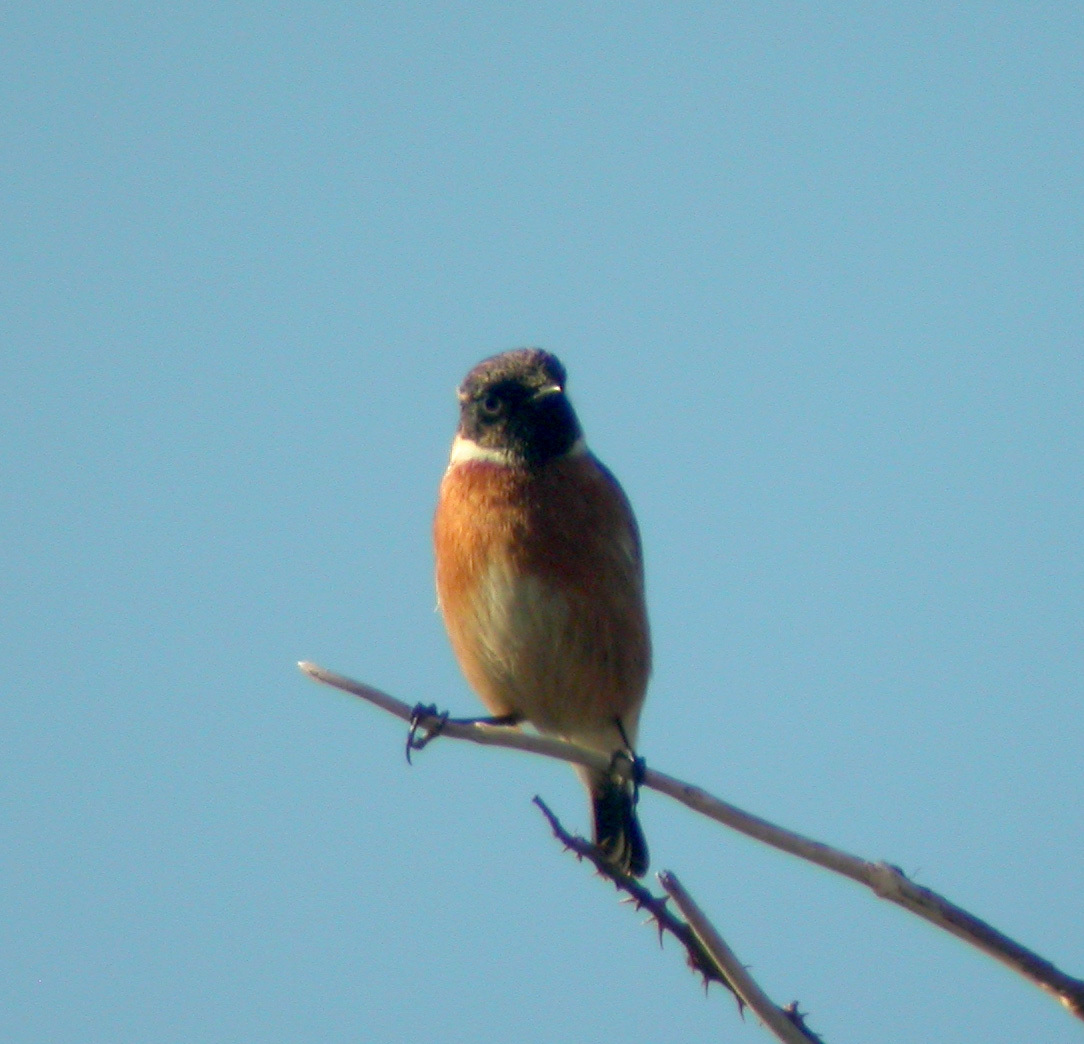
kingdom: Animalia
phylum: Chordata
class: Aves
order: Passeriformes
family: Muscicapidae
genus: Saxicola
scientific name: Saxicola rubicola
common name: European stonechat
